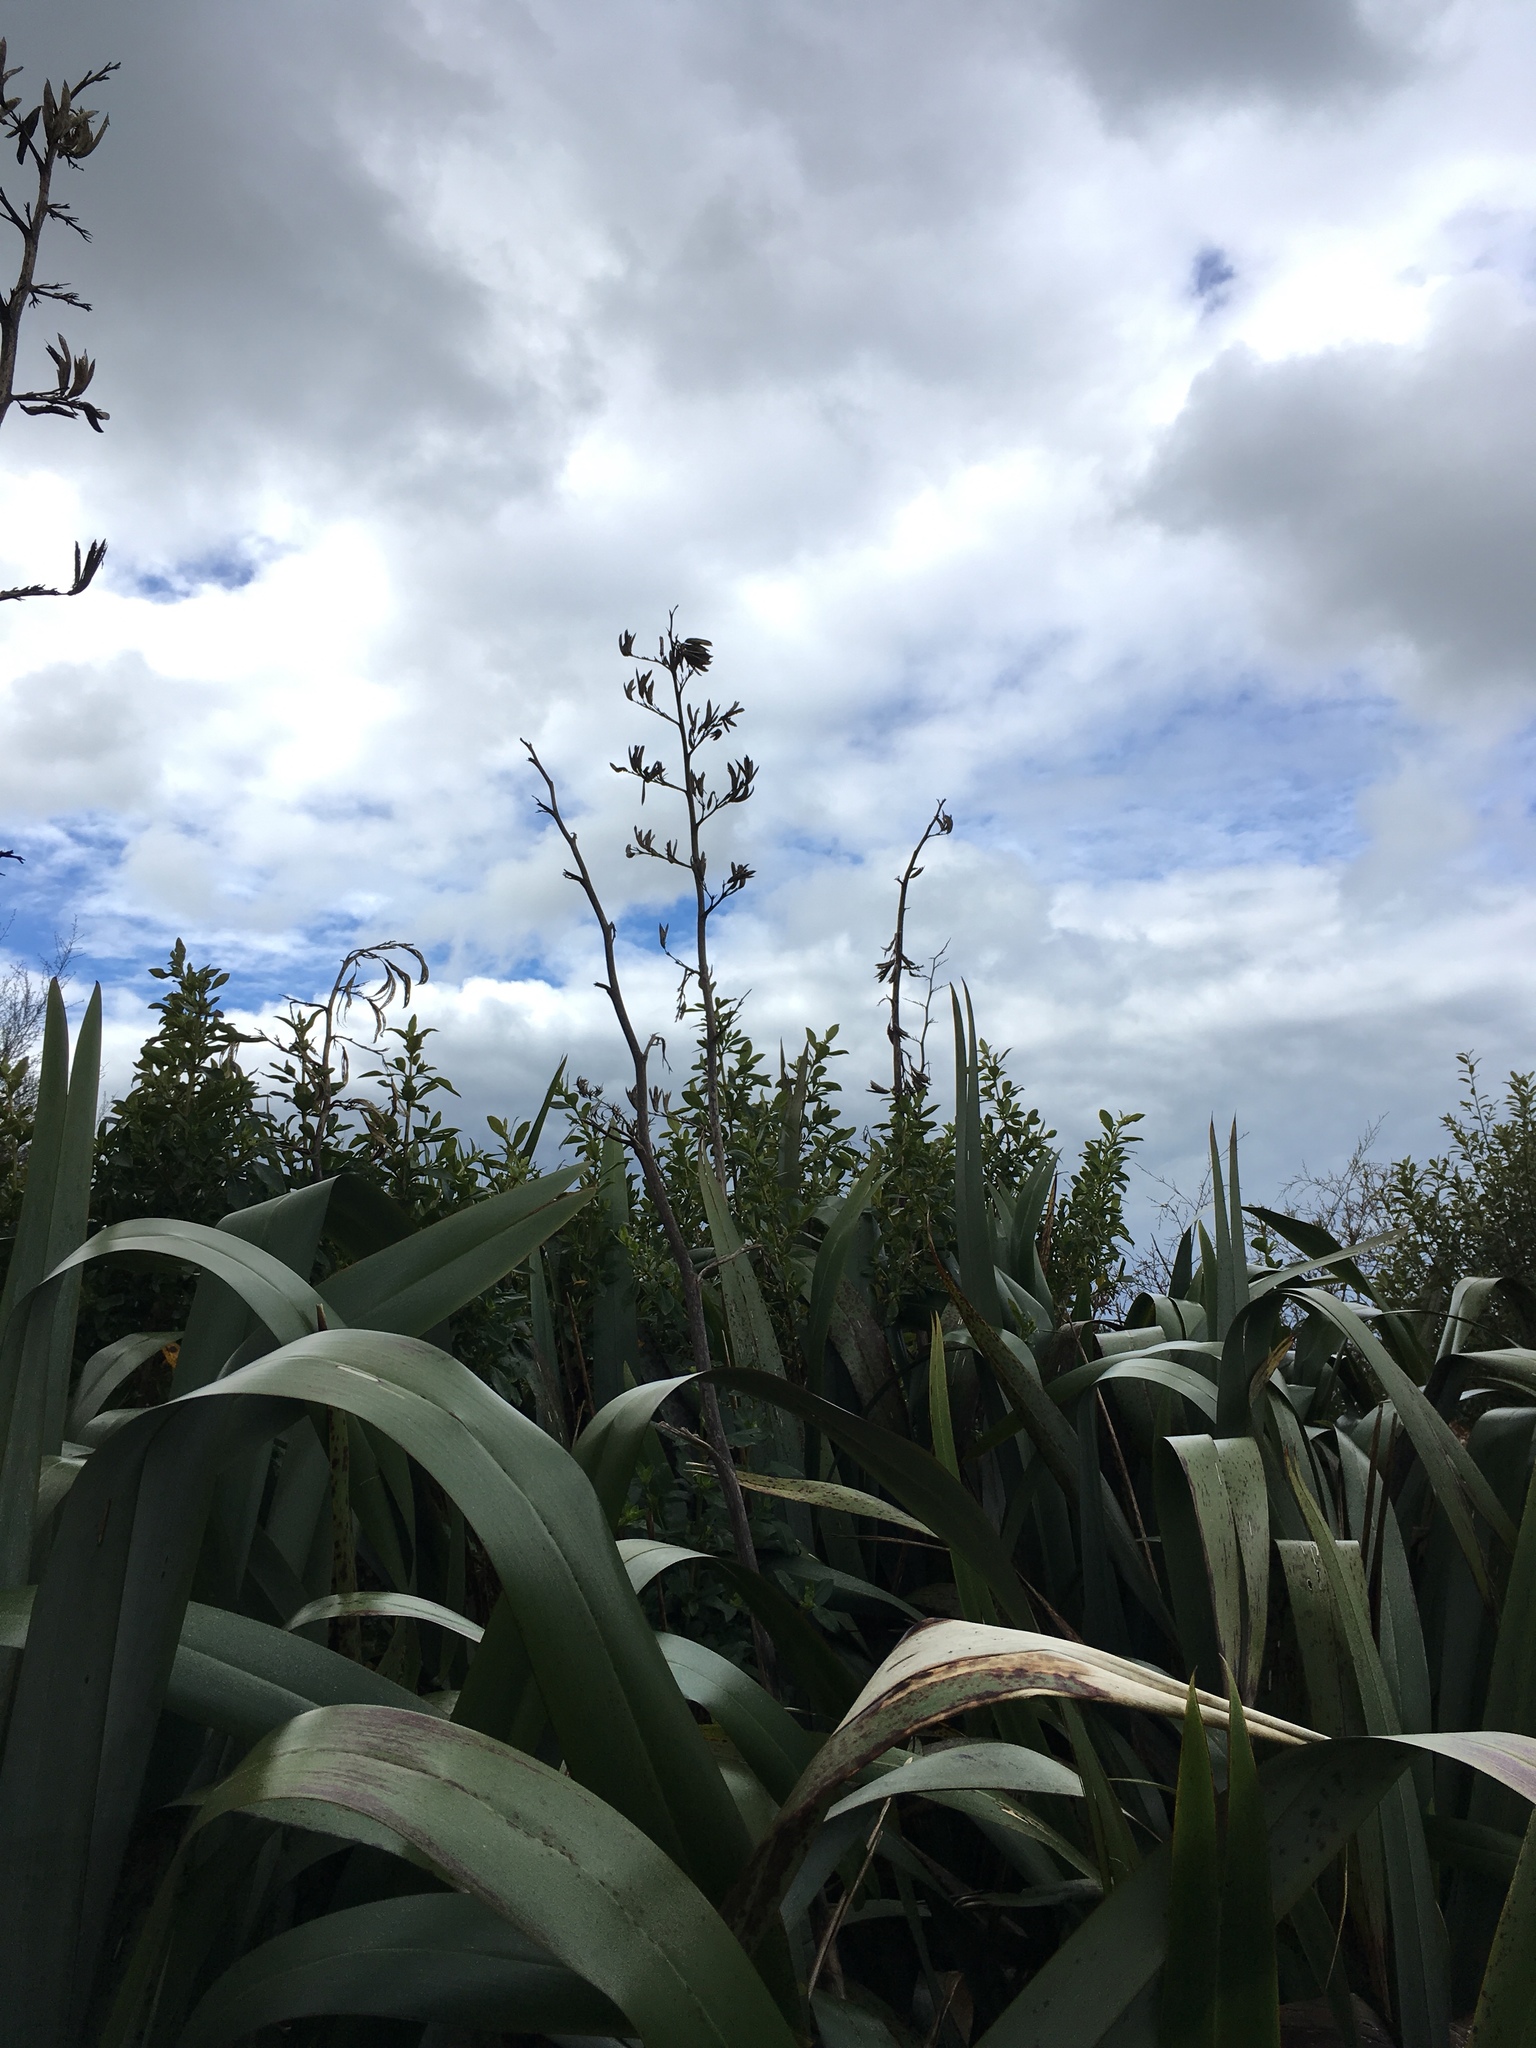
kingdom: Plantae
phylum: Tracheophyta
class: Liliopsida
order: Asparagales
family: Asphodelaceae
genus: Phormium
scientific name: Phormium tenax
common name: New zealand flax
